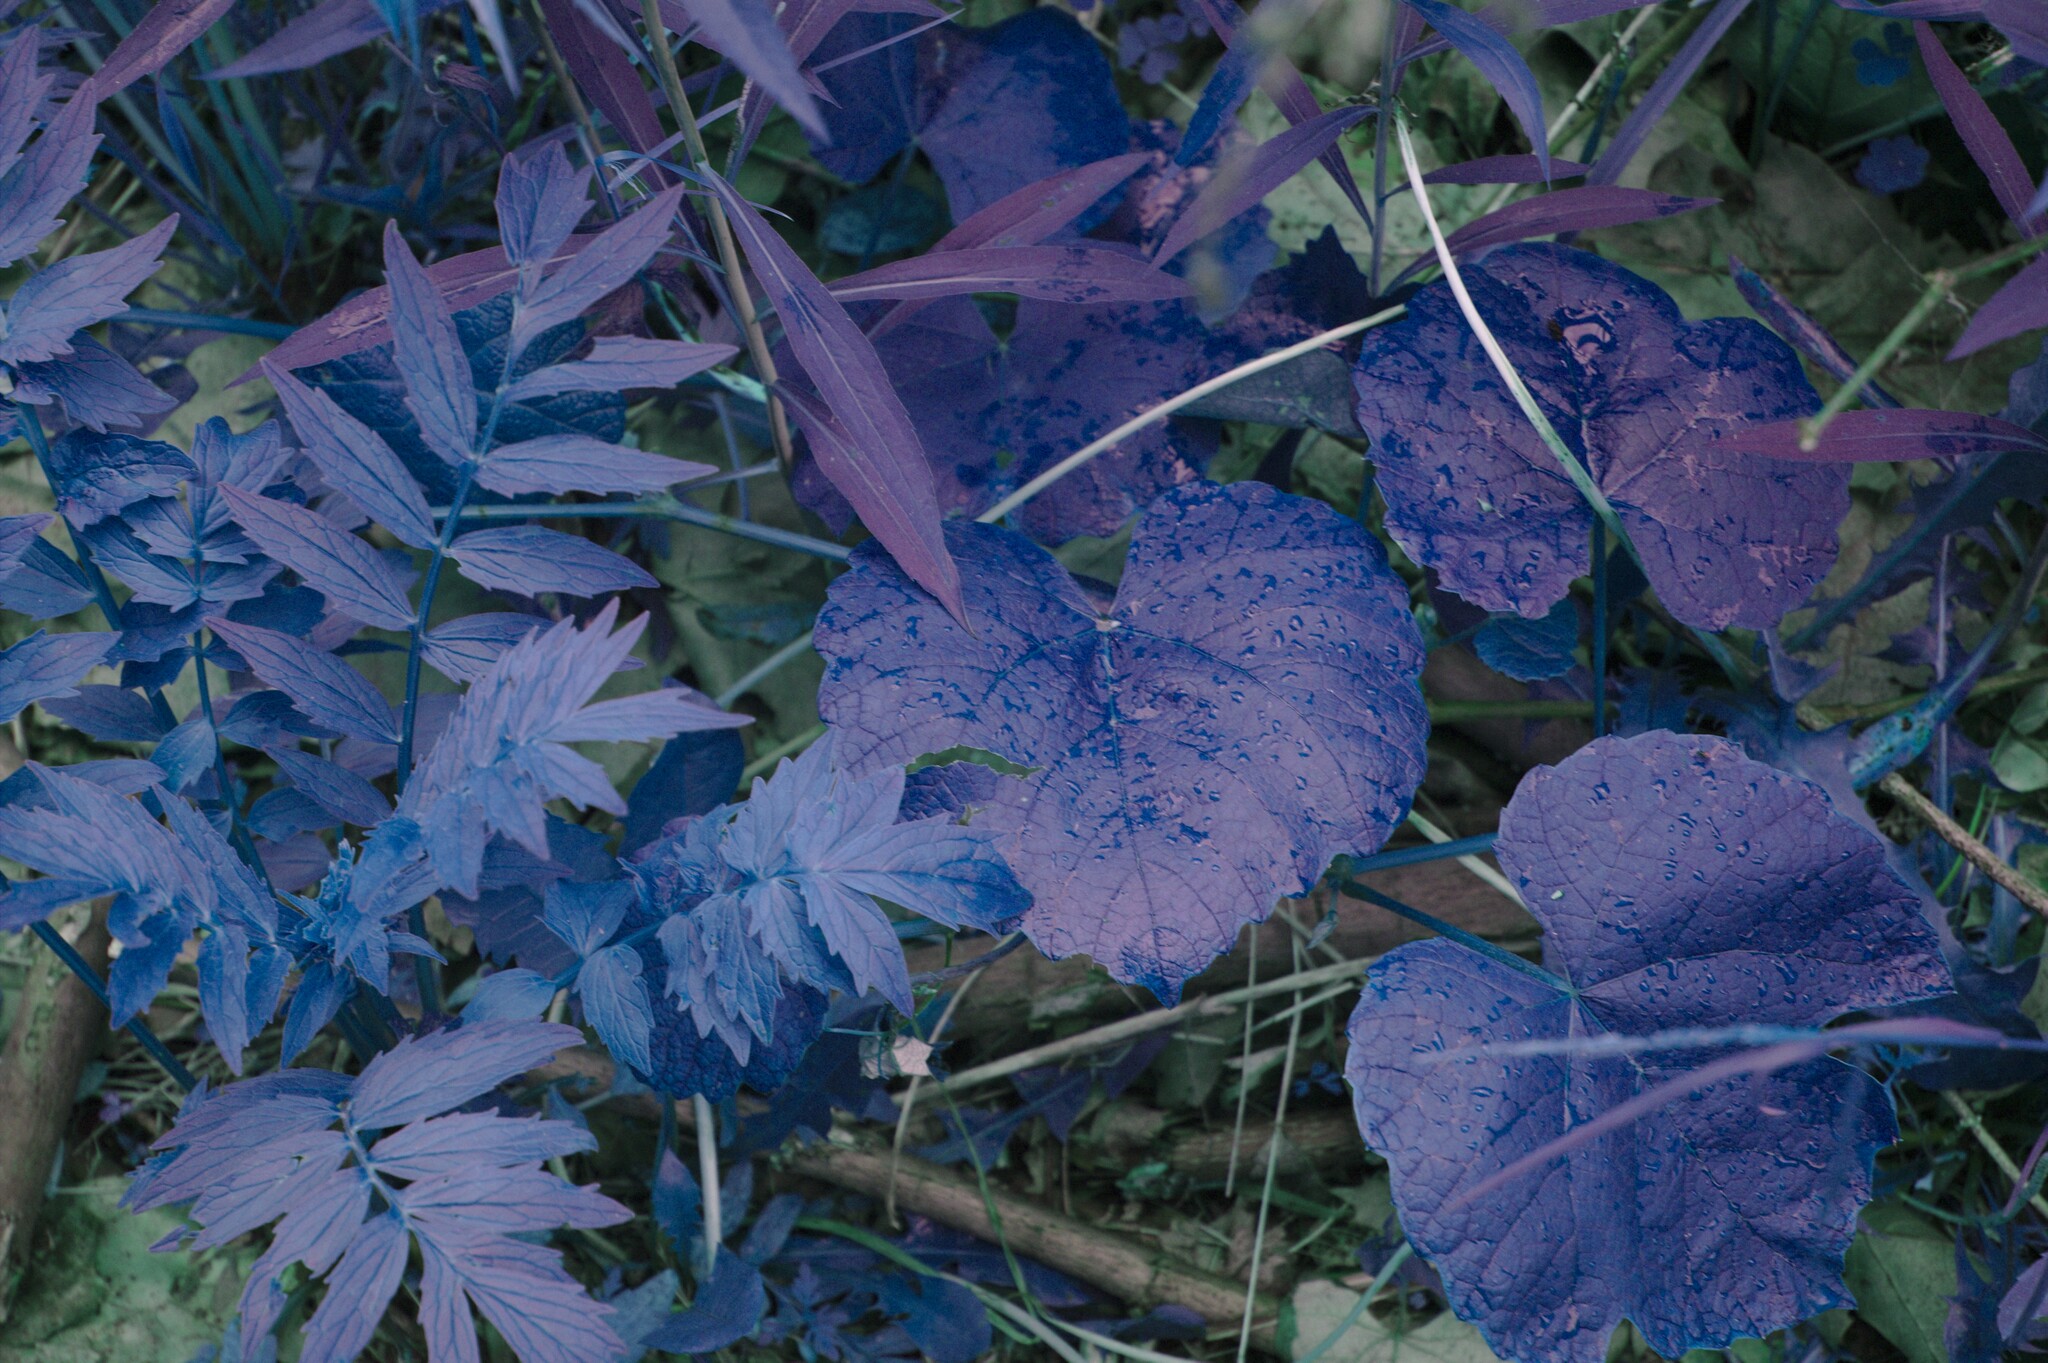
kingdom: Plantae
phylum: Tracheophyta
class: Magnoliopsida
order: Dipsacales
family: Caprifoliaceae
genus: Valeriana
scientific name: Valeriana officinalis
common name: Common valerian
